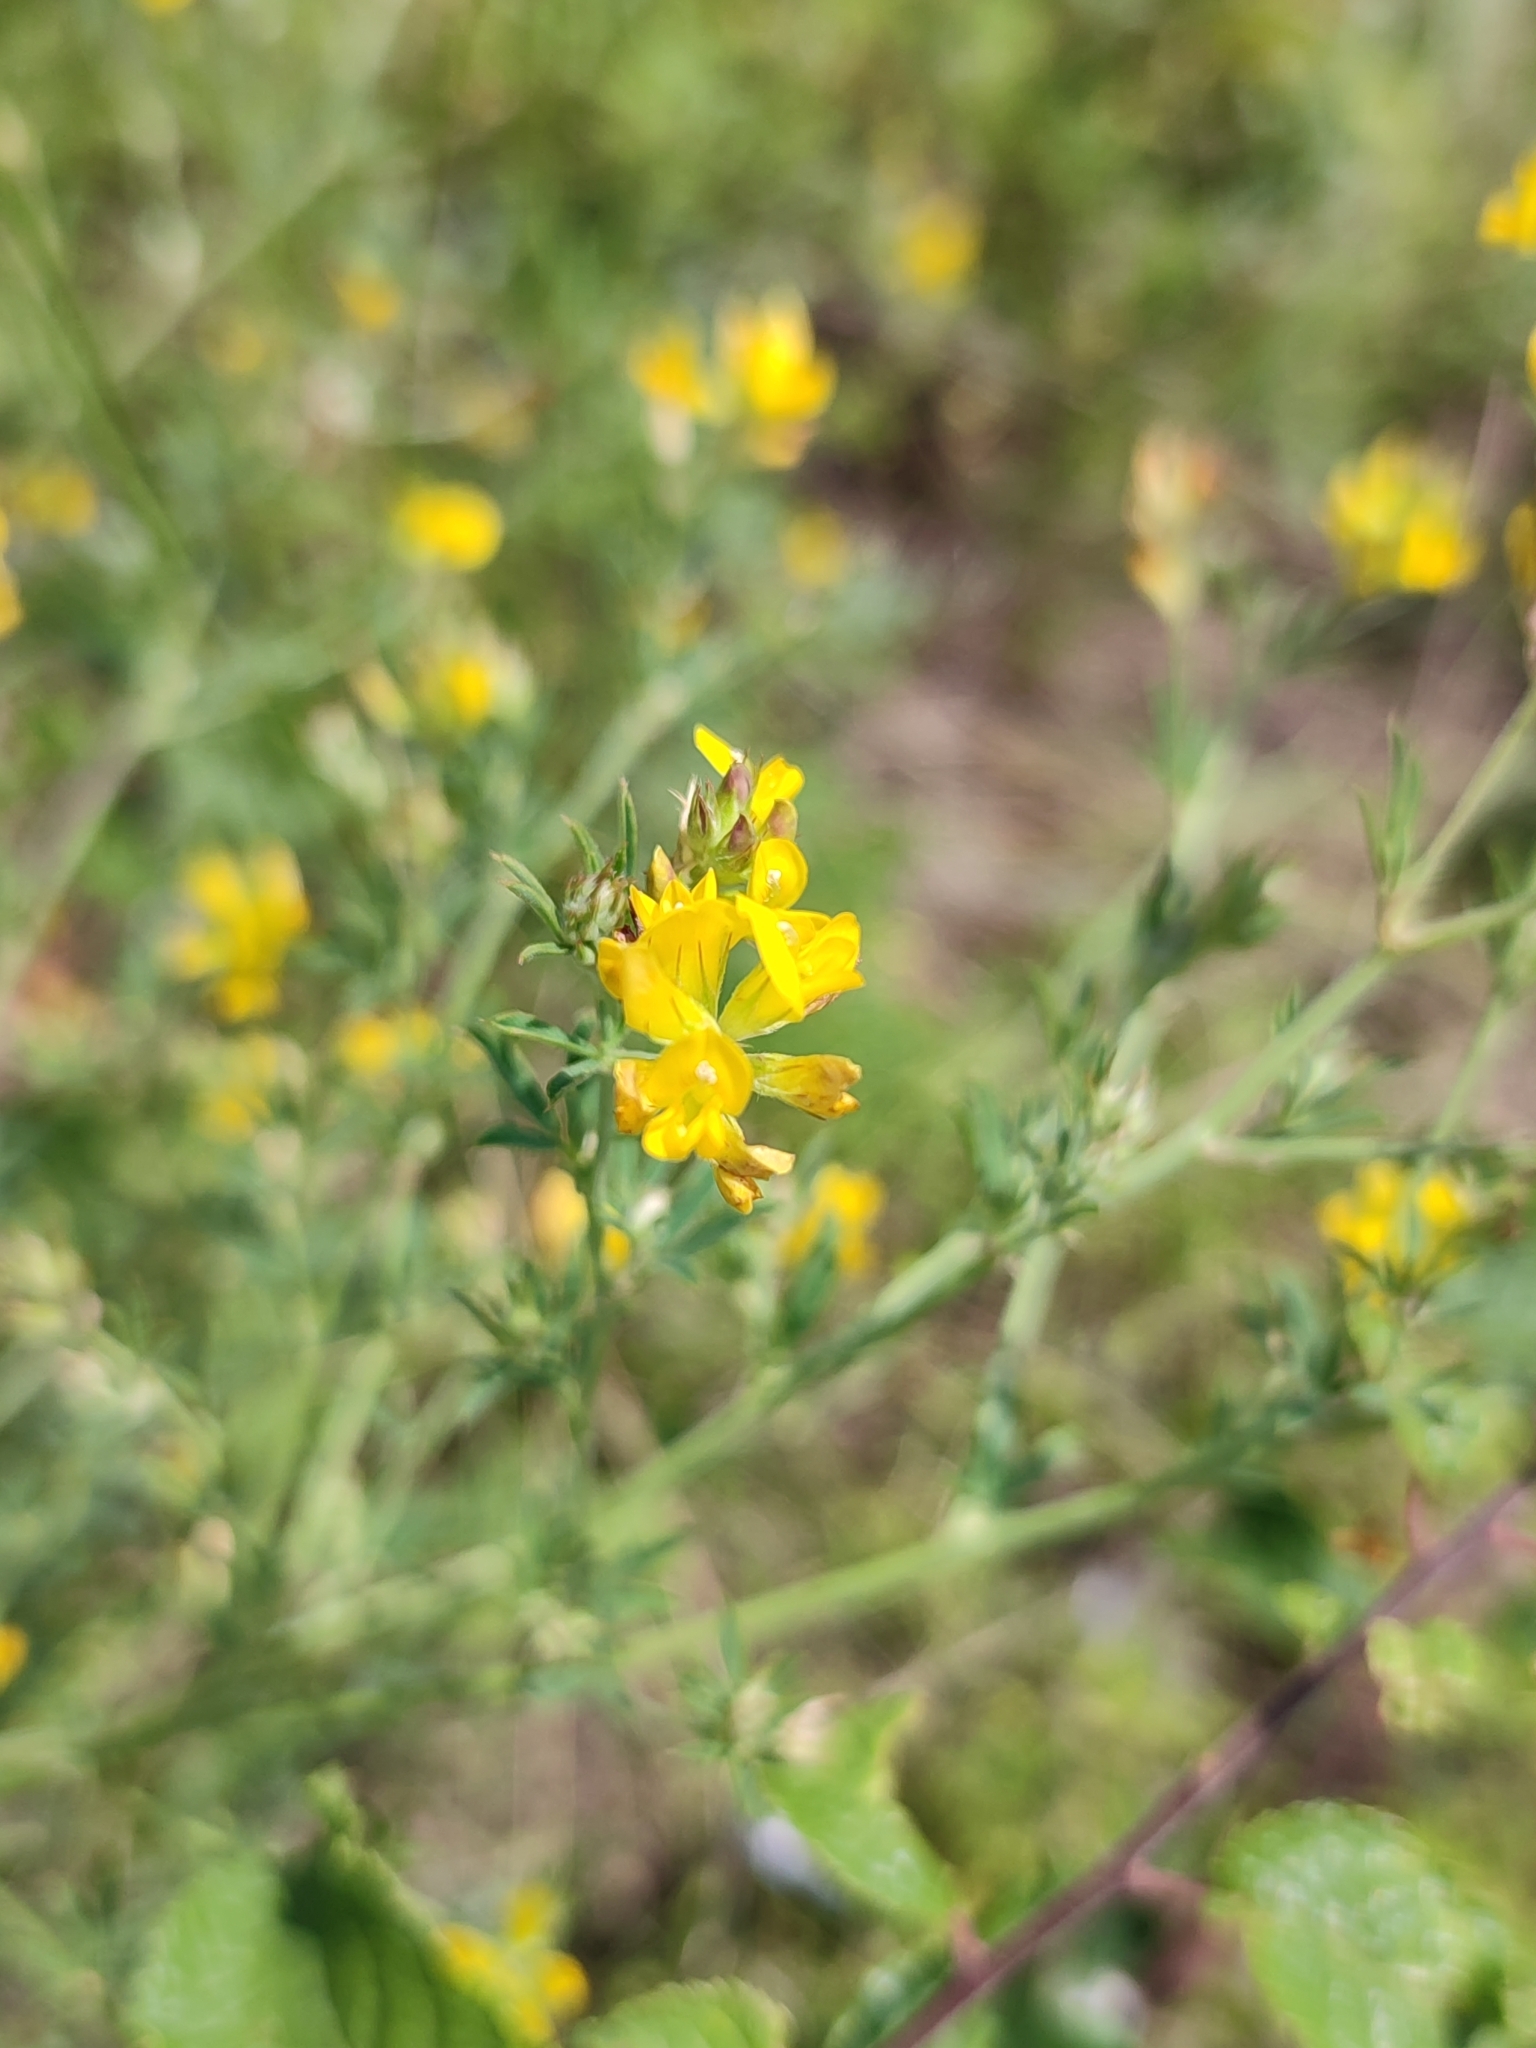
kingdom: Plantae
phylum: Tracheophyta
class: Magnoliopsida
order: Fabales
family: Fabaceae
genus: Medicago
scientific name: Medicago falcata
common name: Sickle medick
